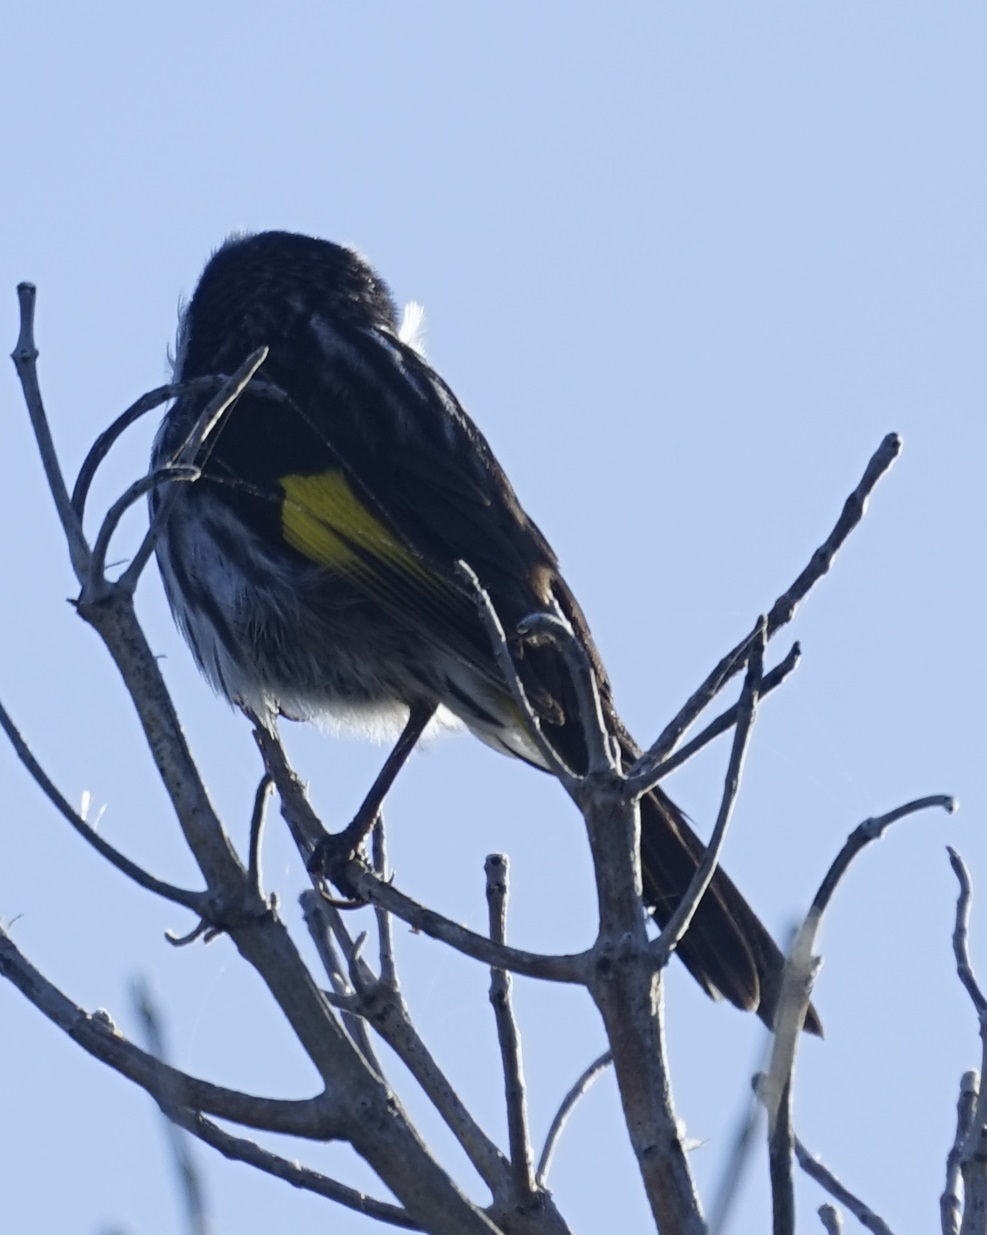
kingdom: Animalia
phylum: Chordata
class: Aves
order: Passeriformes
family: Meliphagidae
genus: Phylidonyris
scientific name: Phylidonyris novaehollandiae
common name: New holland honeyeater
